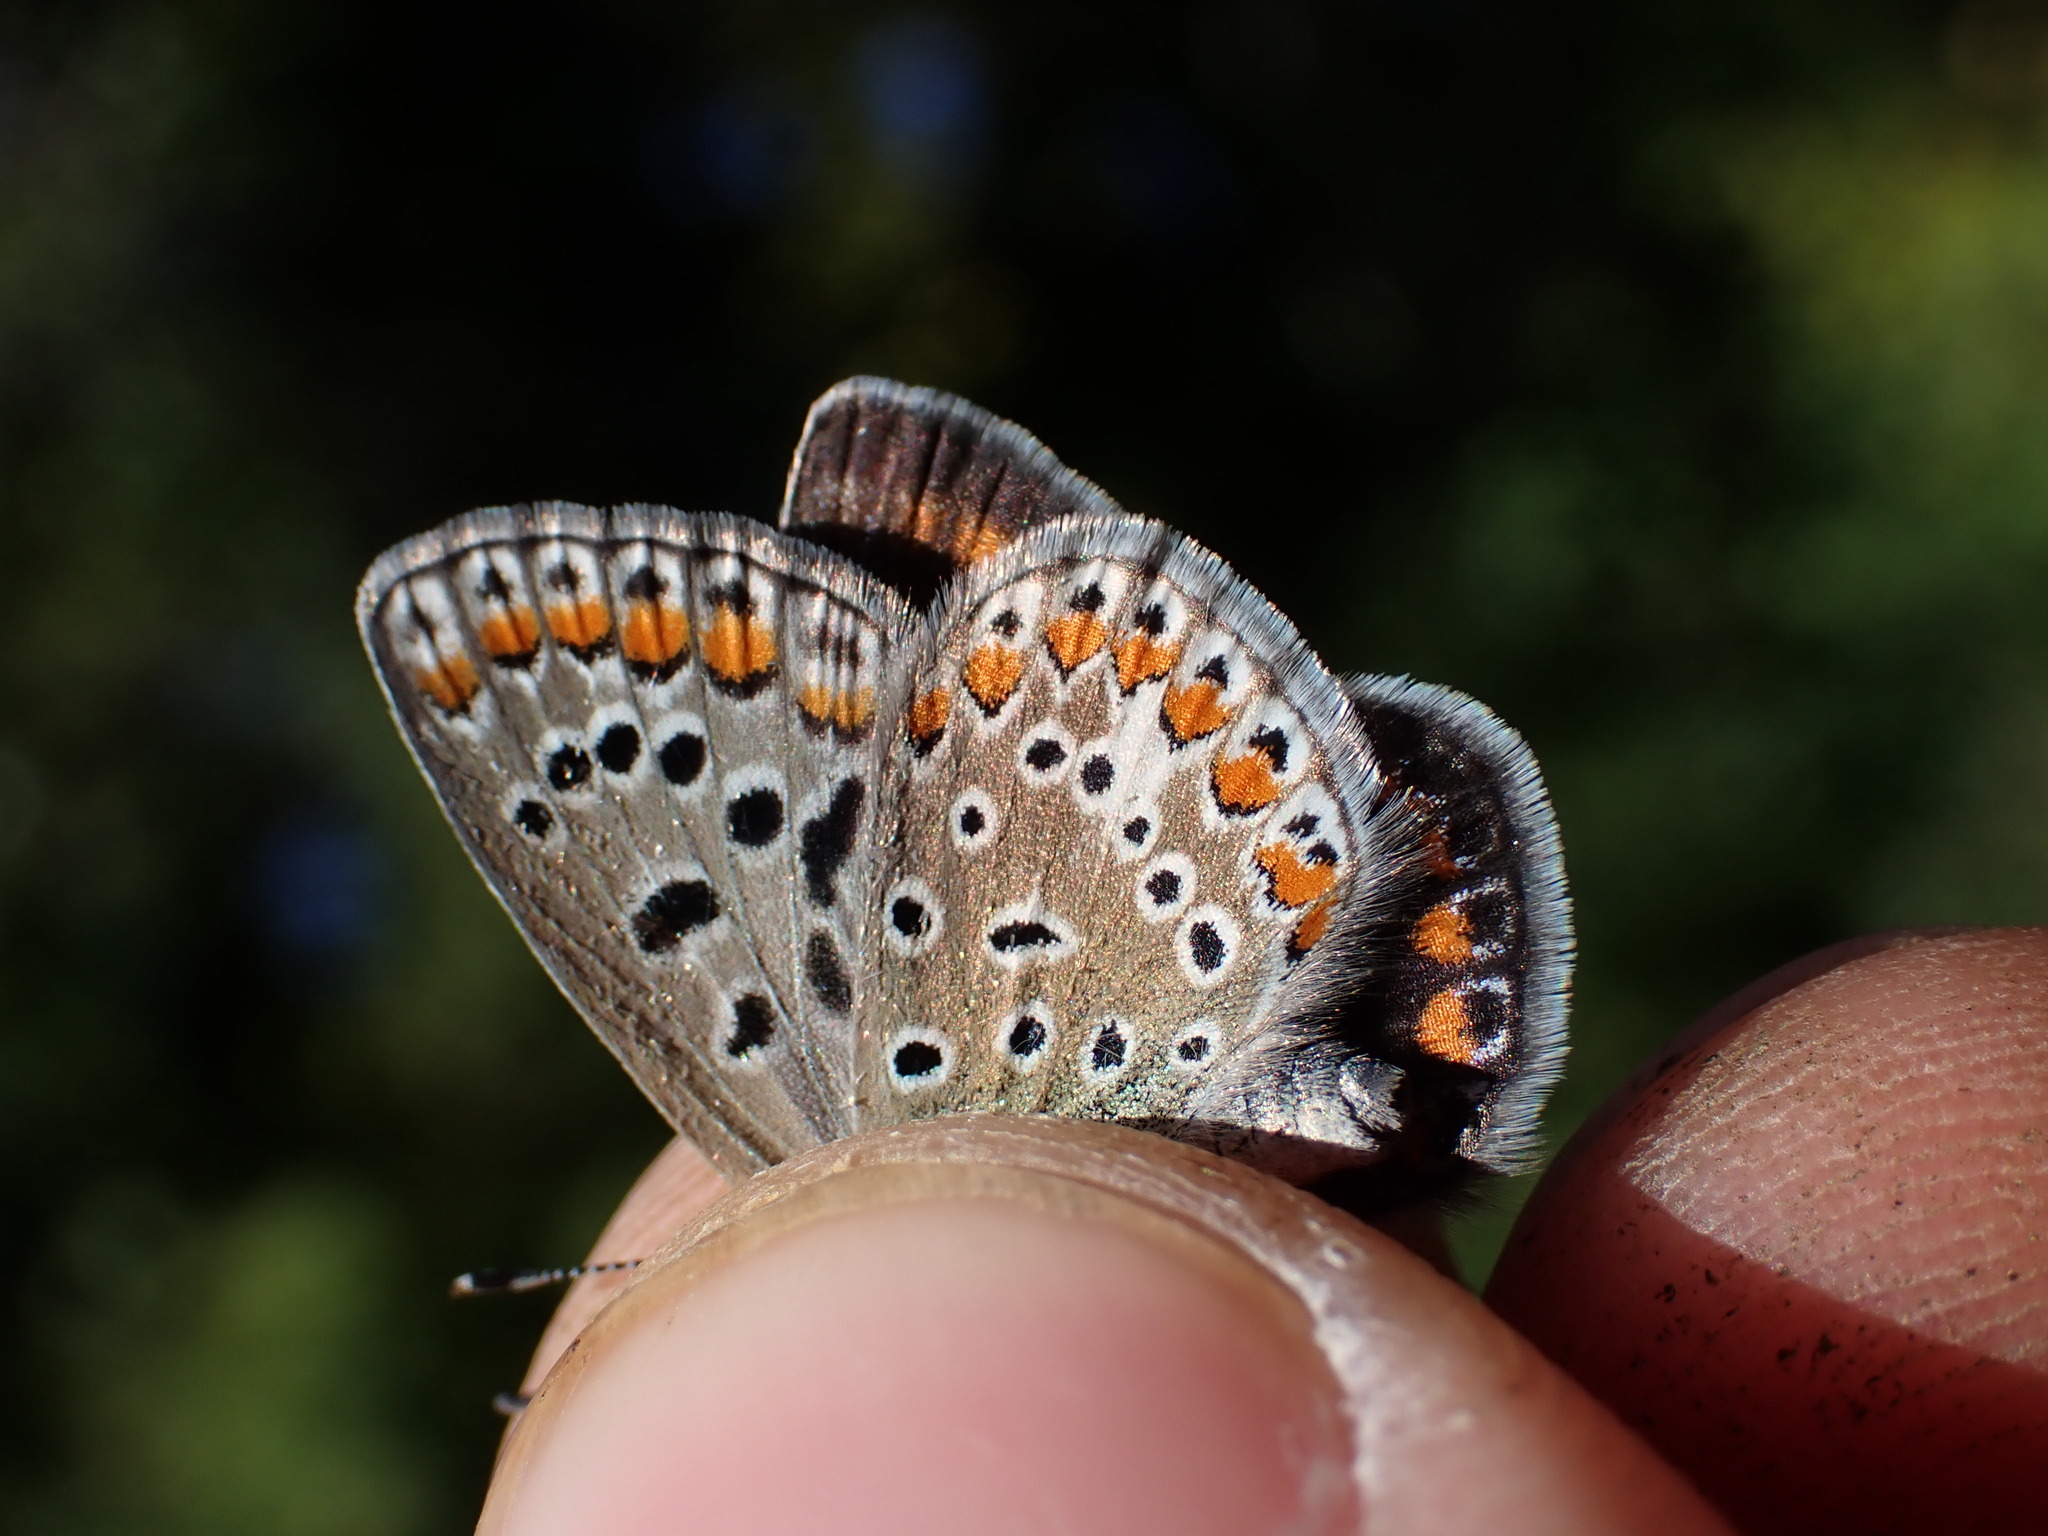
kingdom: Animalia
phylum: Arthropoda
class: Insecta
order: Lepidoptera
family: Lycaenidae
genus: Polyommatus
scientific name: Polyommatus icarus
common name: Common blue
